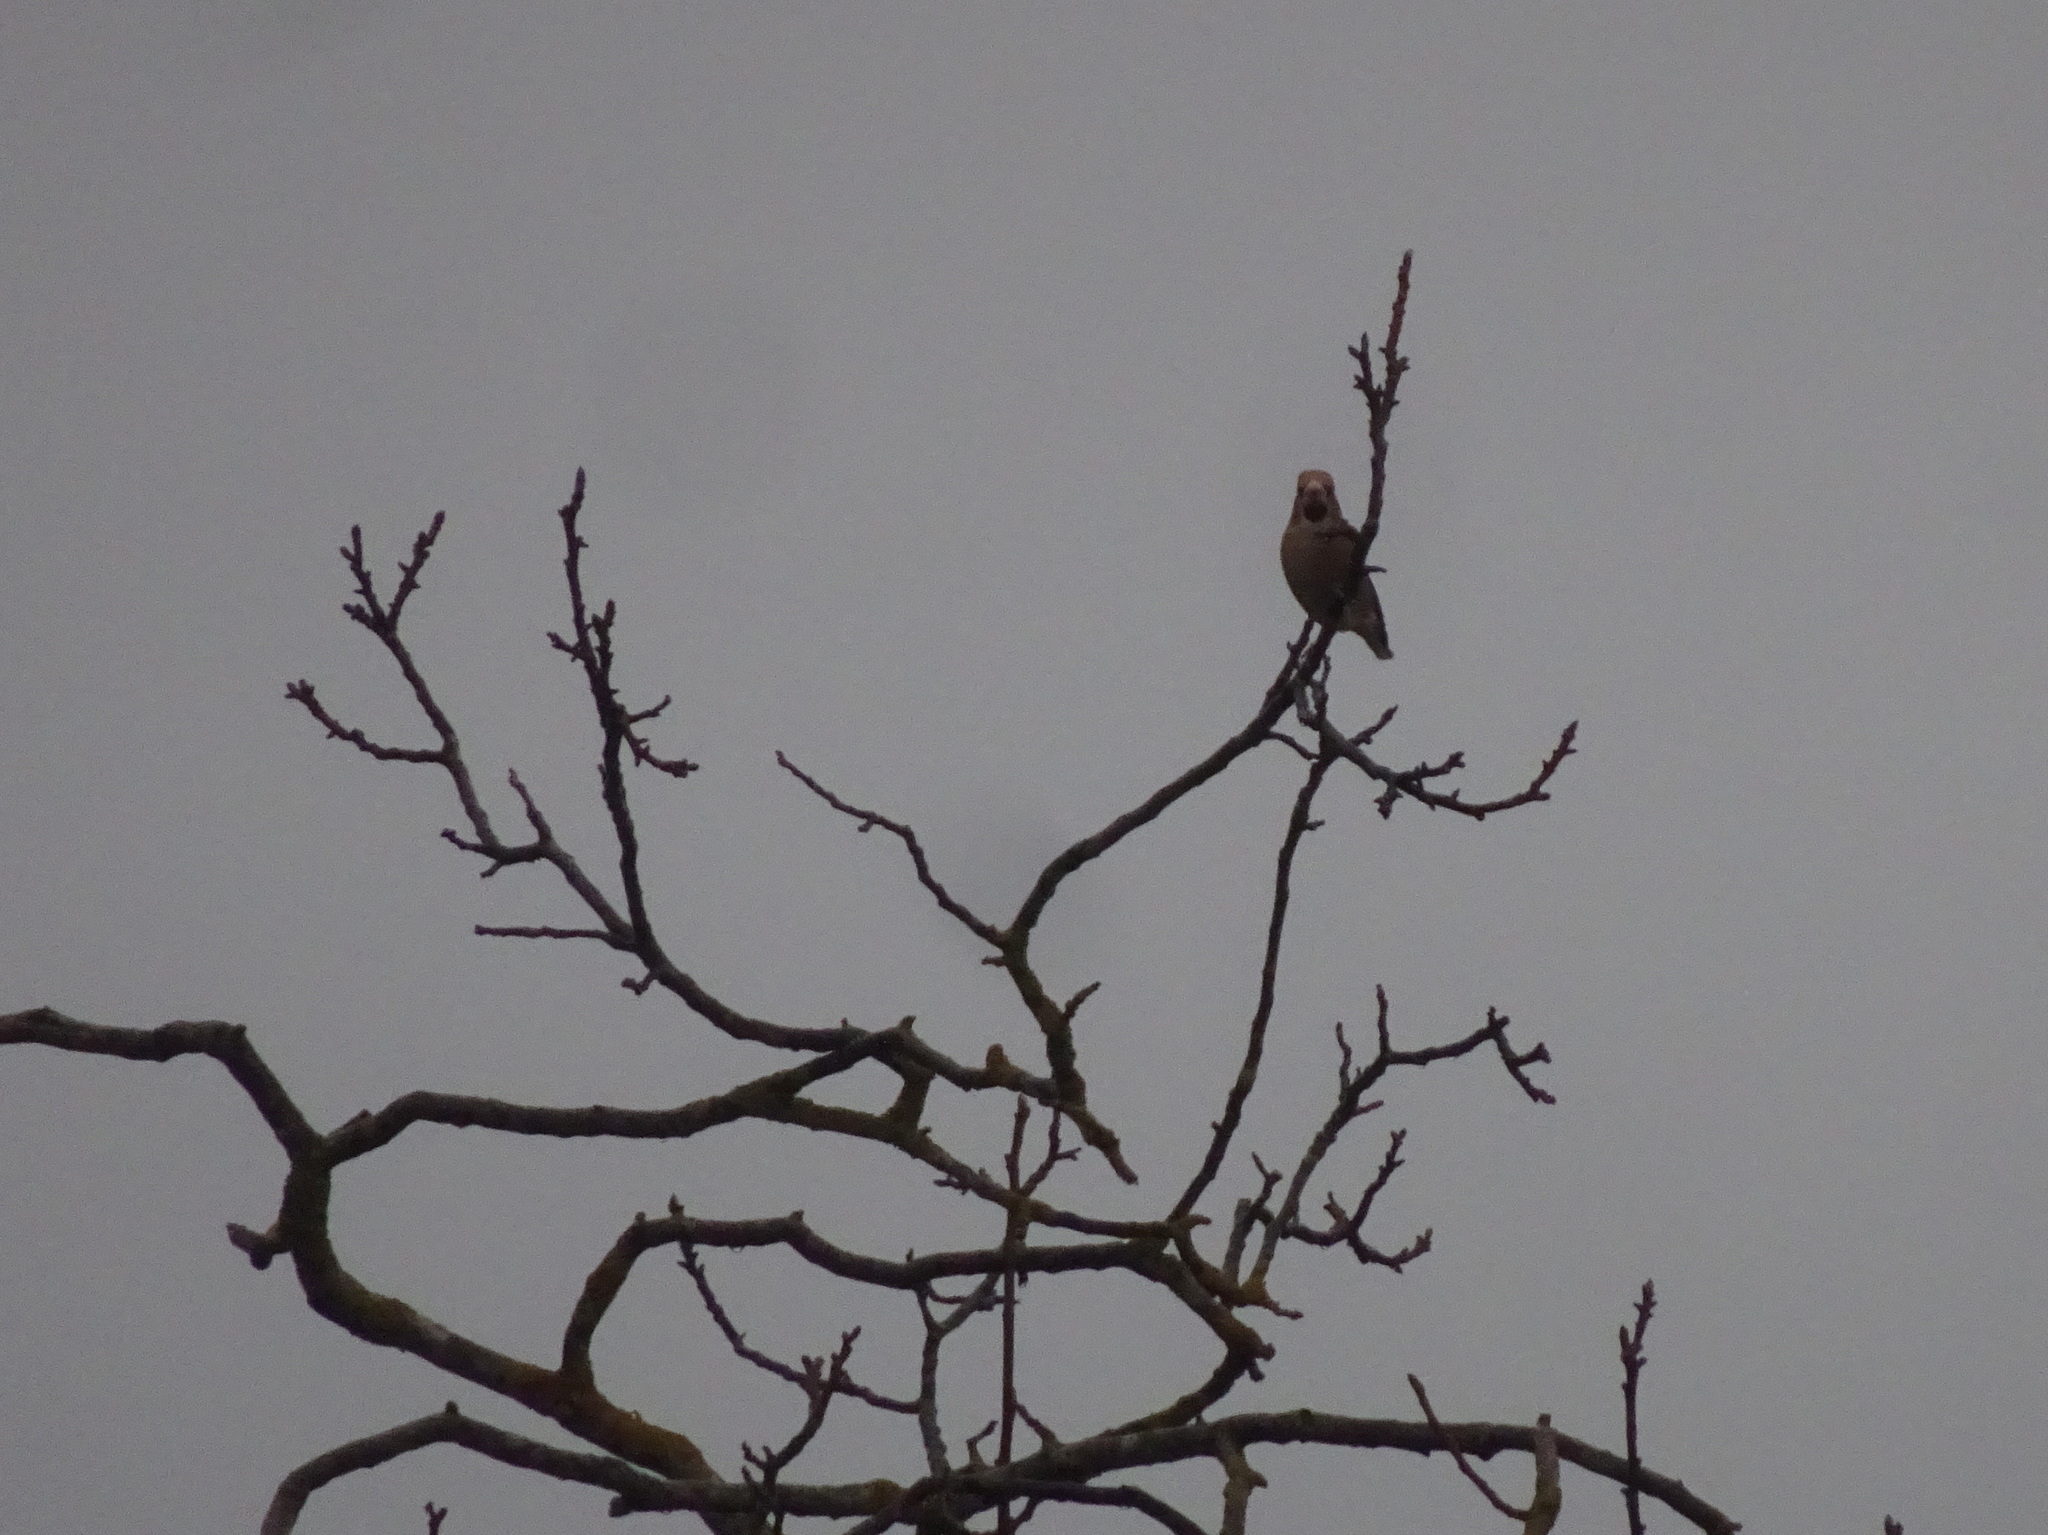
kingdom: Animalia
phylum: Chordata
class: Aves
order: Passeriformes
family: Fringillidae
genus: Coccothraustes
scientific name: Coccothraustes coccothraustes
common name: Hawfinch
